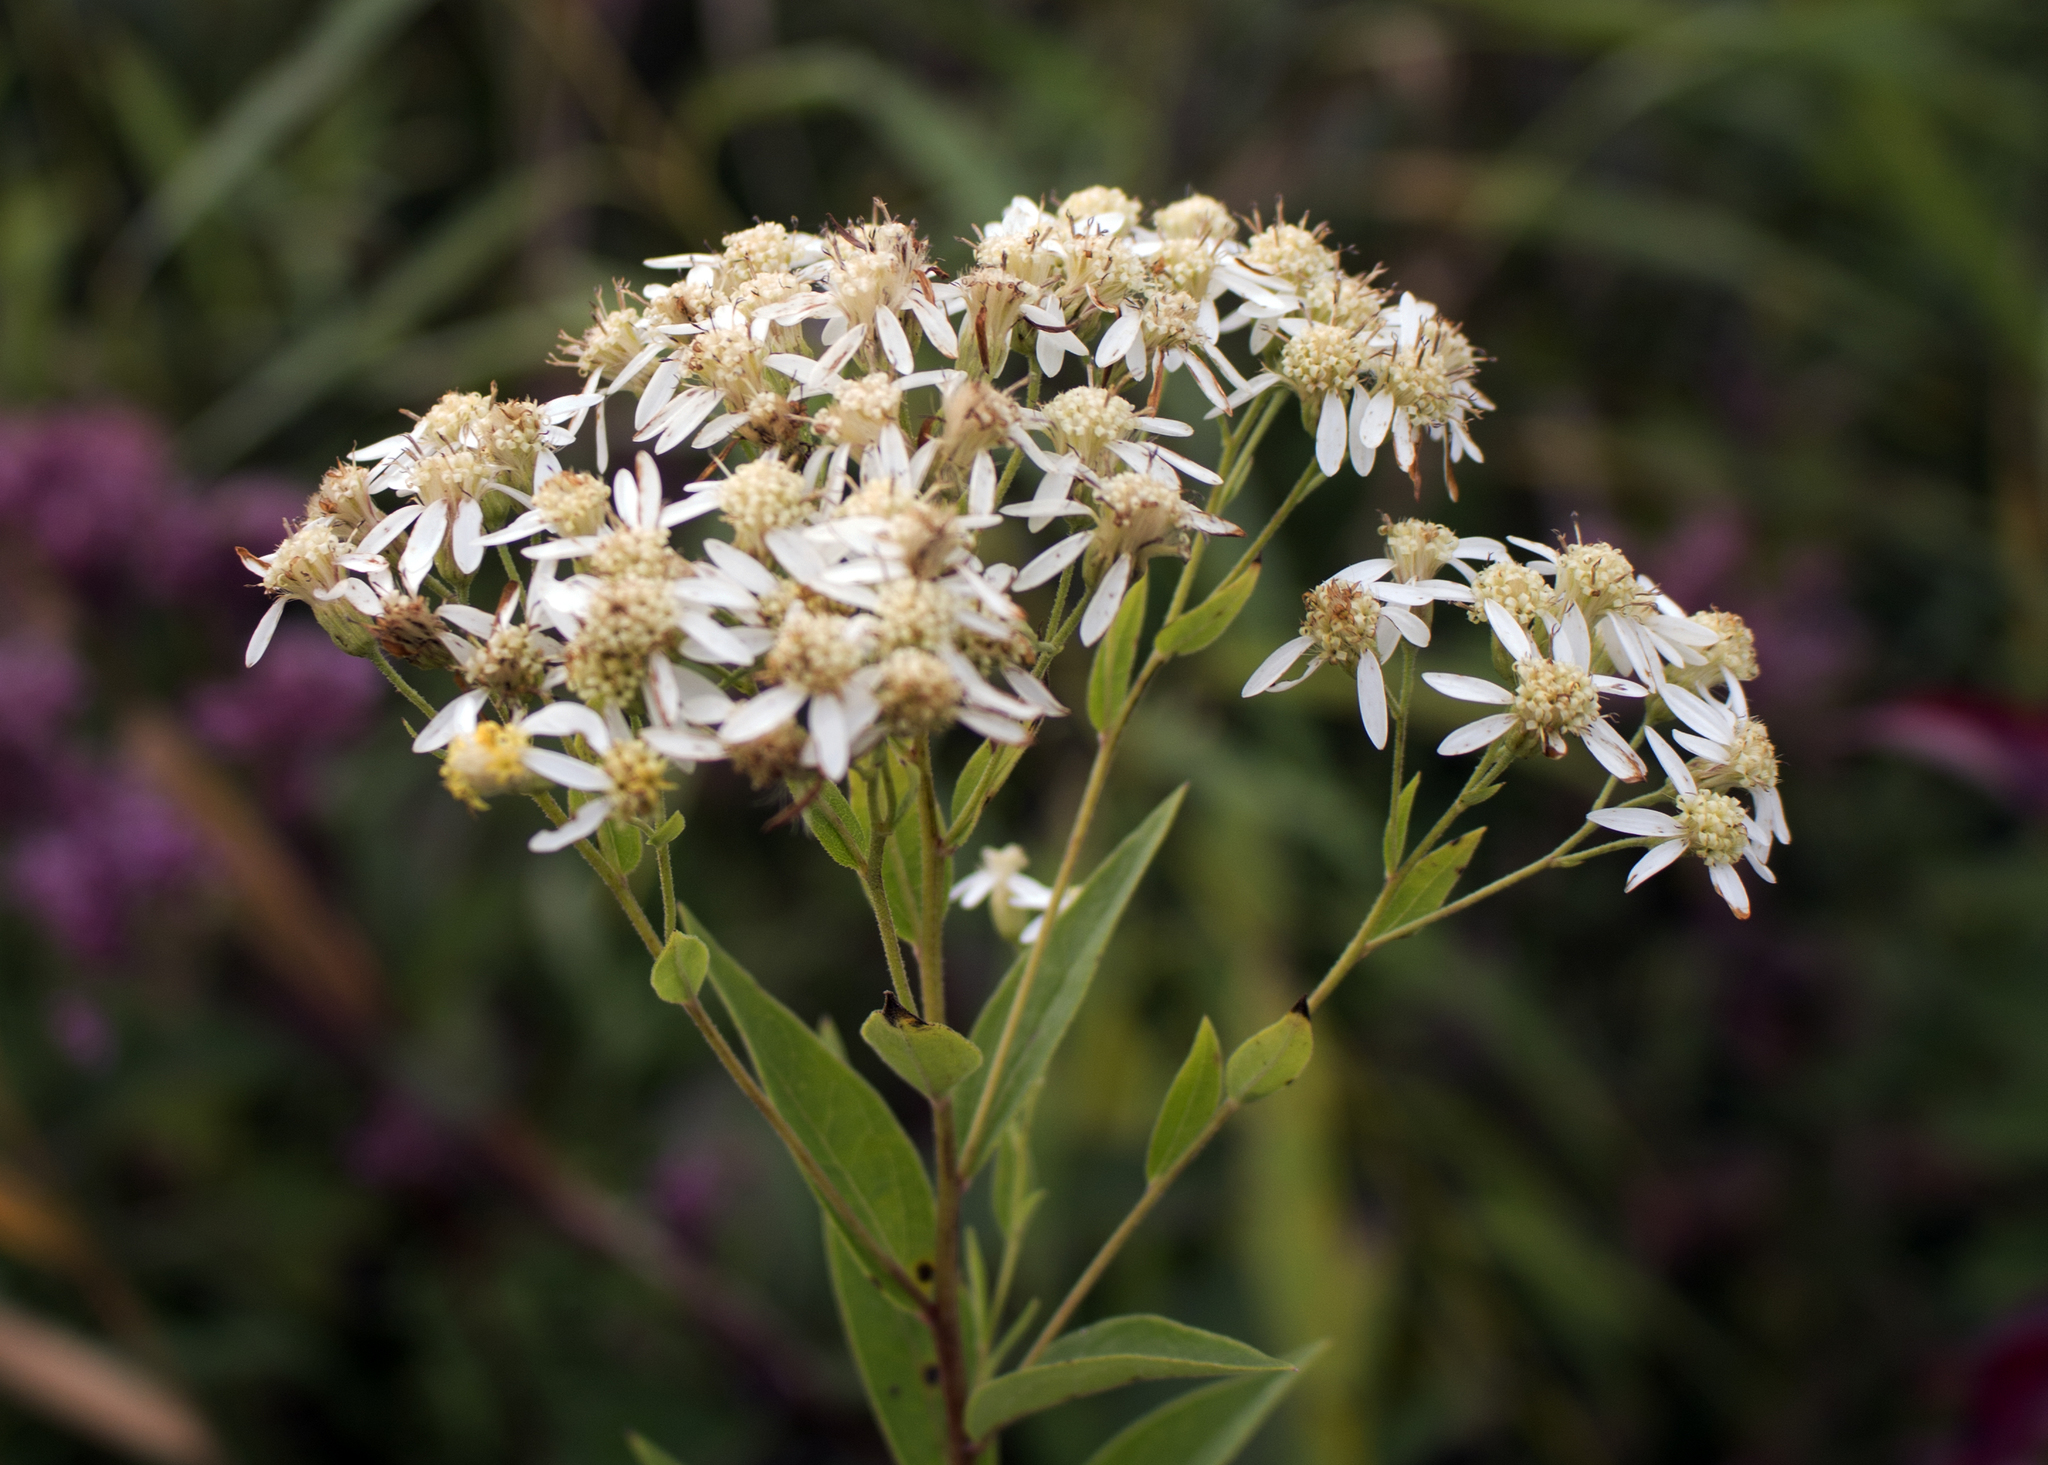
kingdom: Plantae
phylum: Tracheophyta
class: Magnoliopsida
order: Asterales
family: Asteraceae
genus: Doellingeria
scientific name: Doellingeria umbellata
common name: Flat-top white aster
